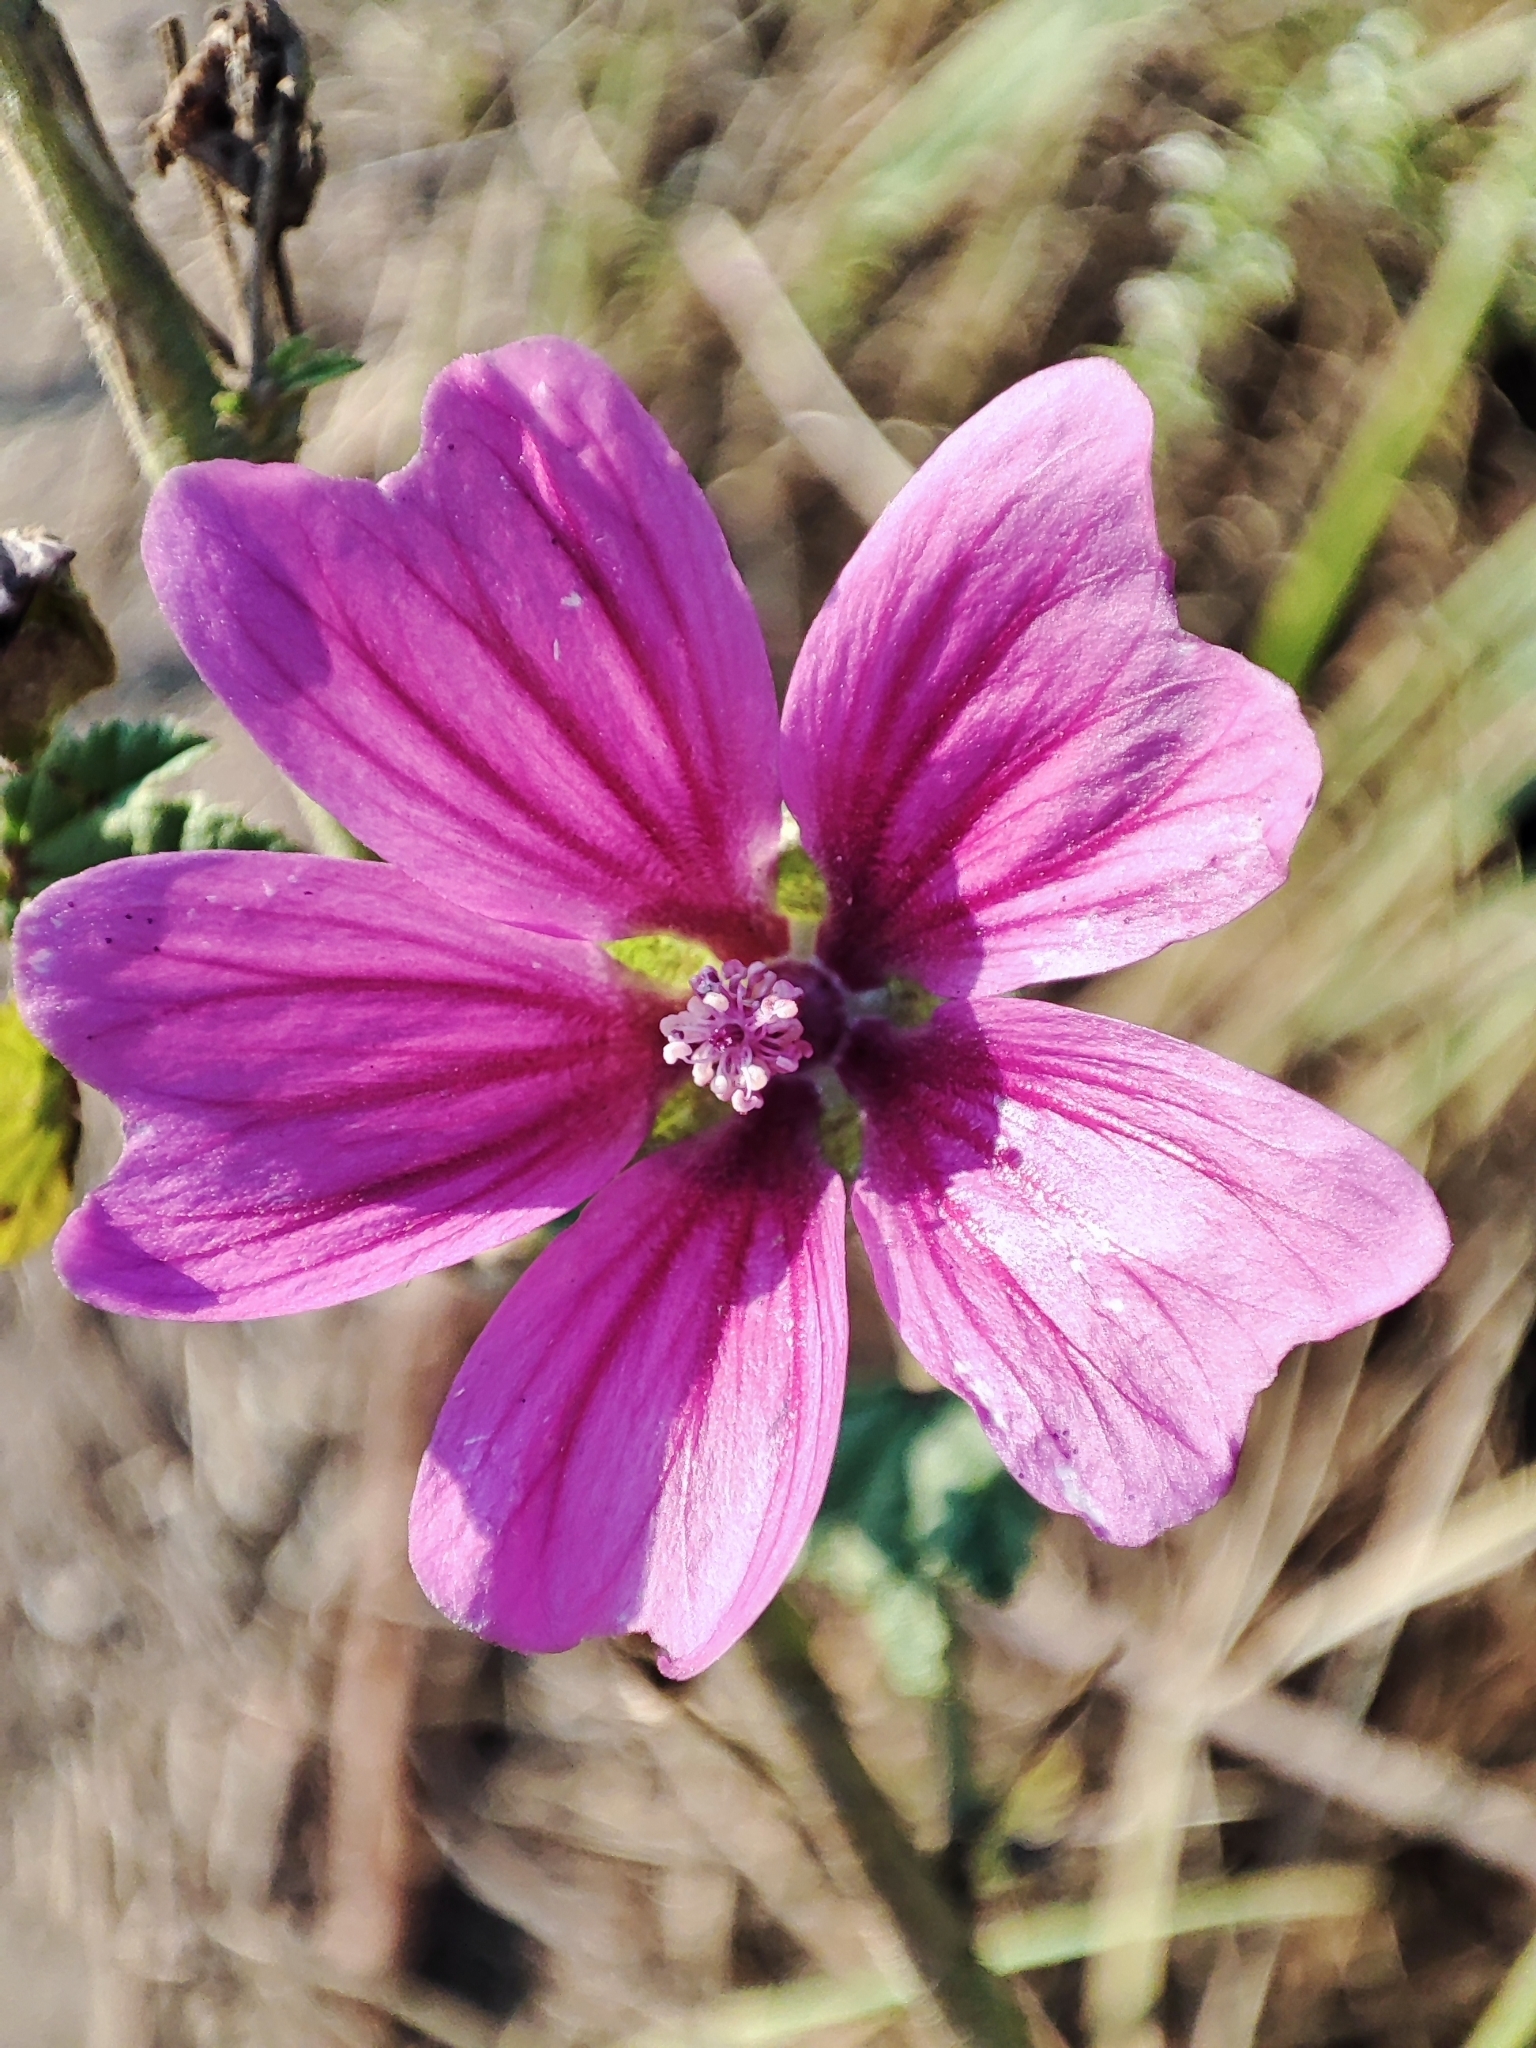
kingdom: Plantae
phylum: Tracheophyta
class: Magnoliopsida
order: Malvales
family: Malvaceae
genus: Malva
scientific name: Malva sylvestris
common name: Common mallow
